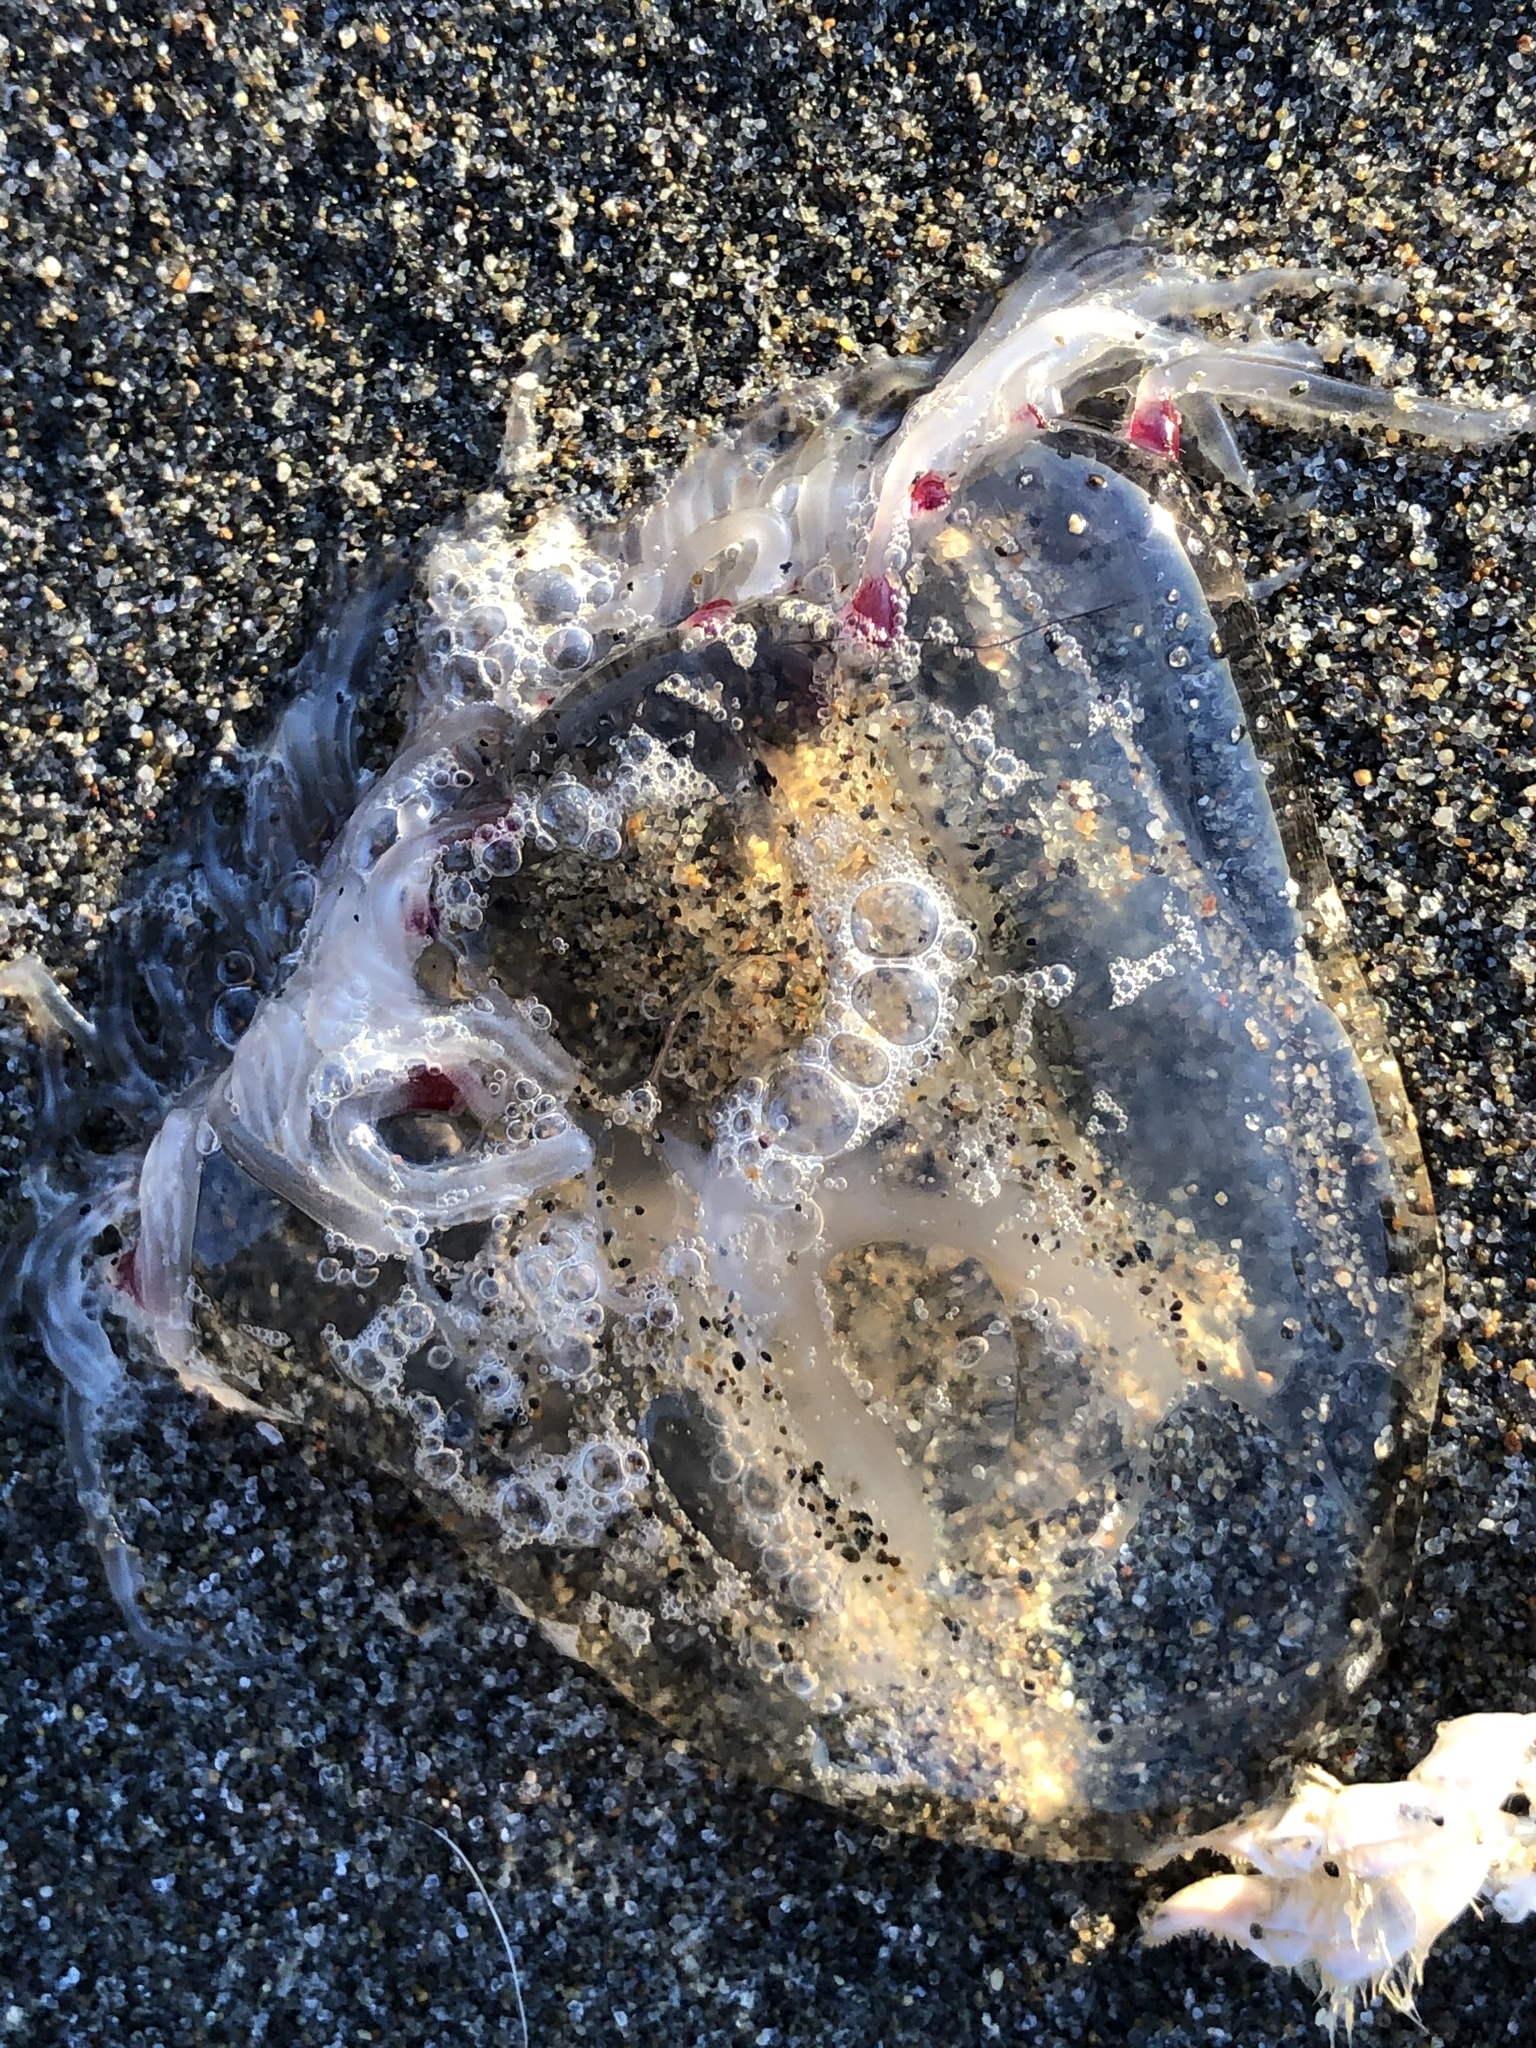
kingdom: Animalia
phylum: Cnidaria
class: Hydrozoa
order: Anthoathecata
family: Corynidae
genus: Scrippsia
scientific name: Scrippsia pacifica
